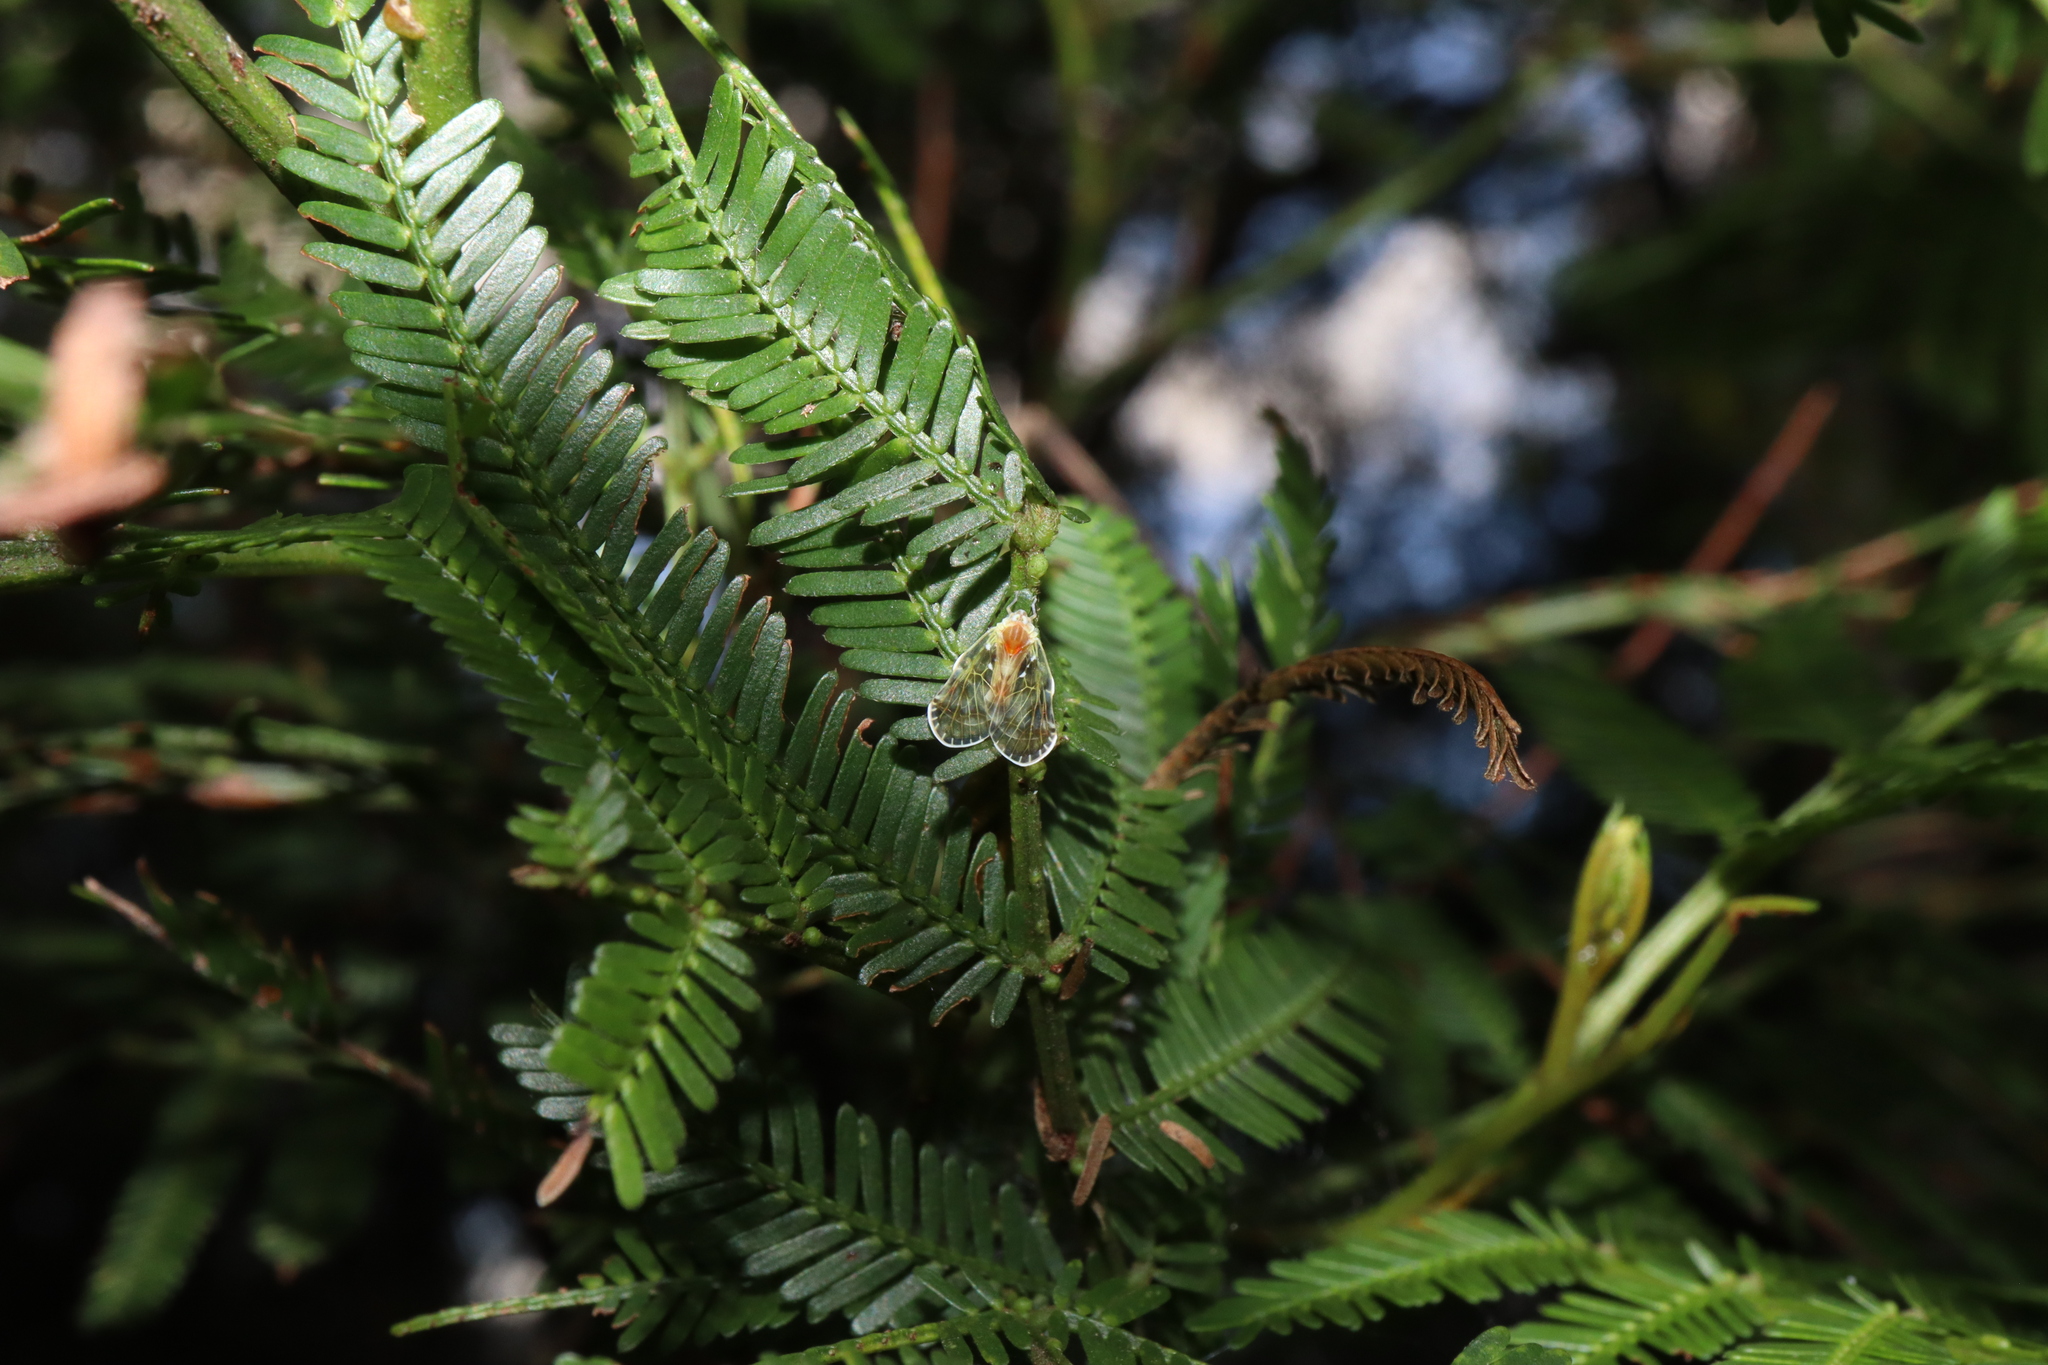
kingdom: Animalia
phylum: Arthropoda
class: Insecta
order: Hemiptera
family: Derbidae
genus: Saccharodite
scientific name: Saccharodite chrysonoe
